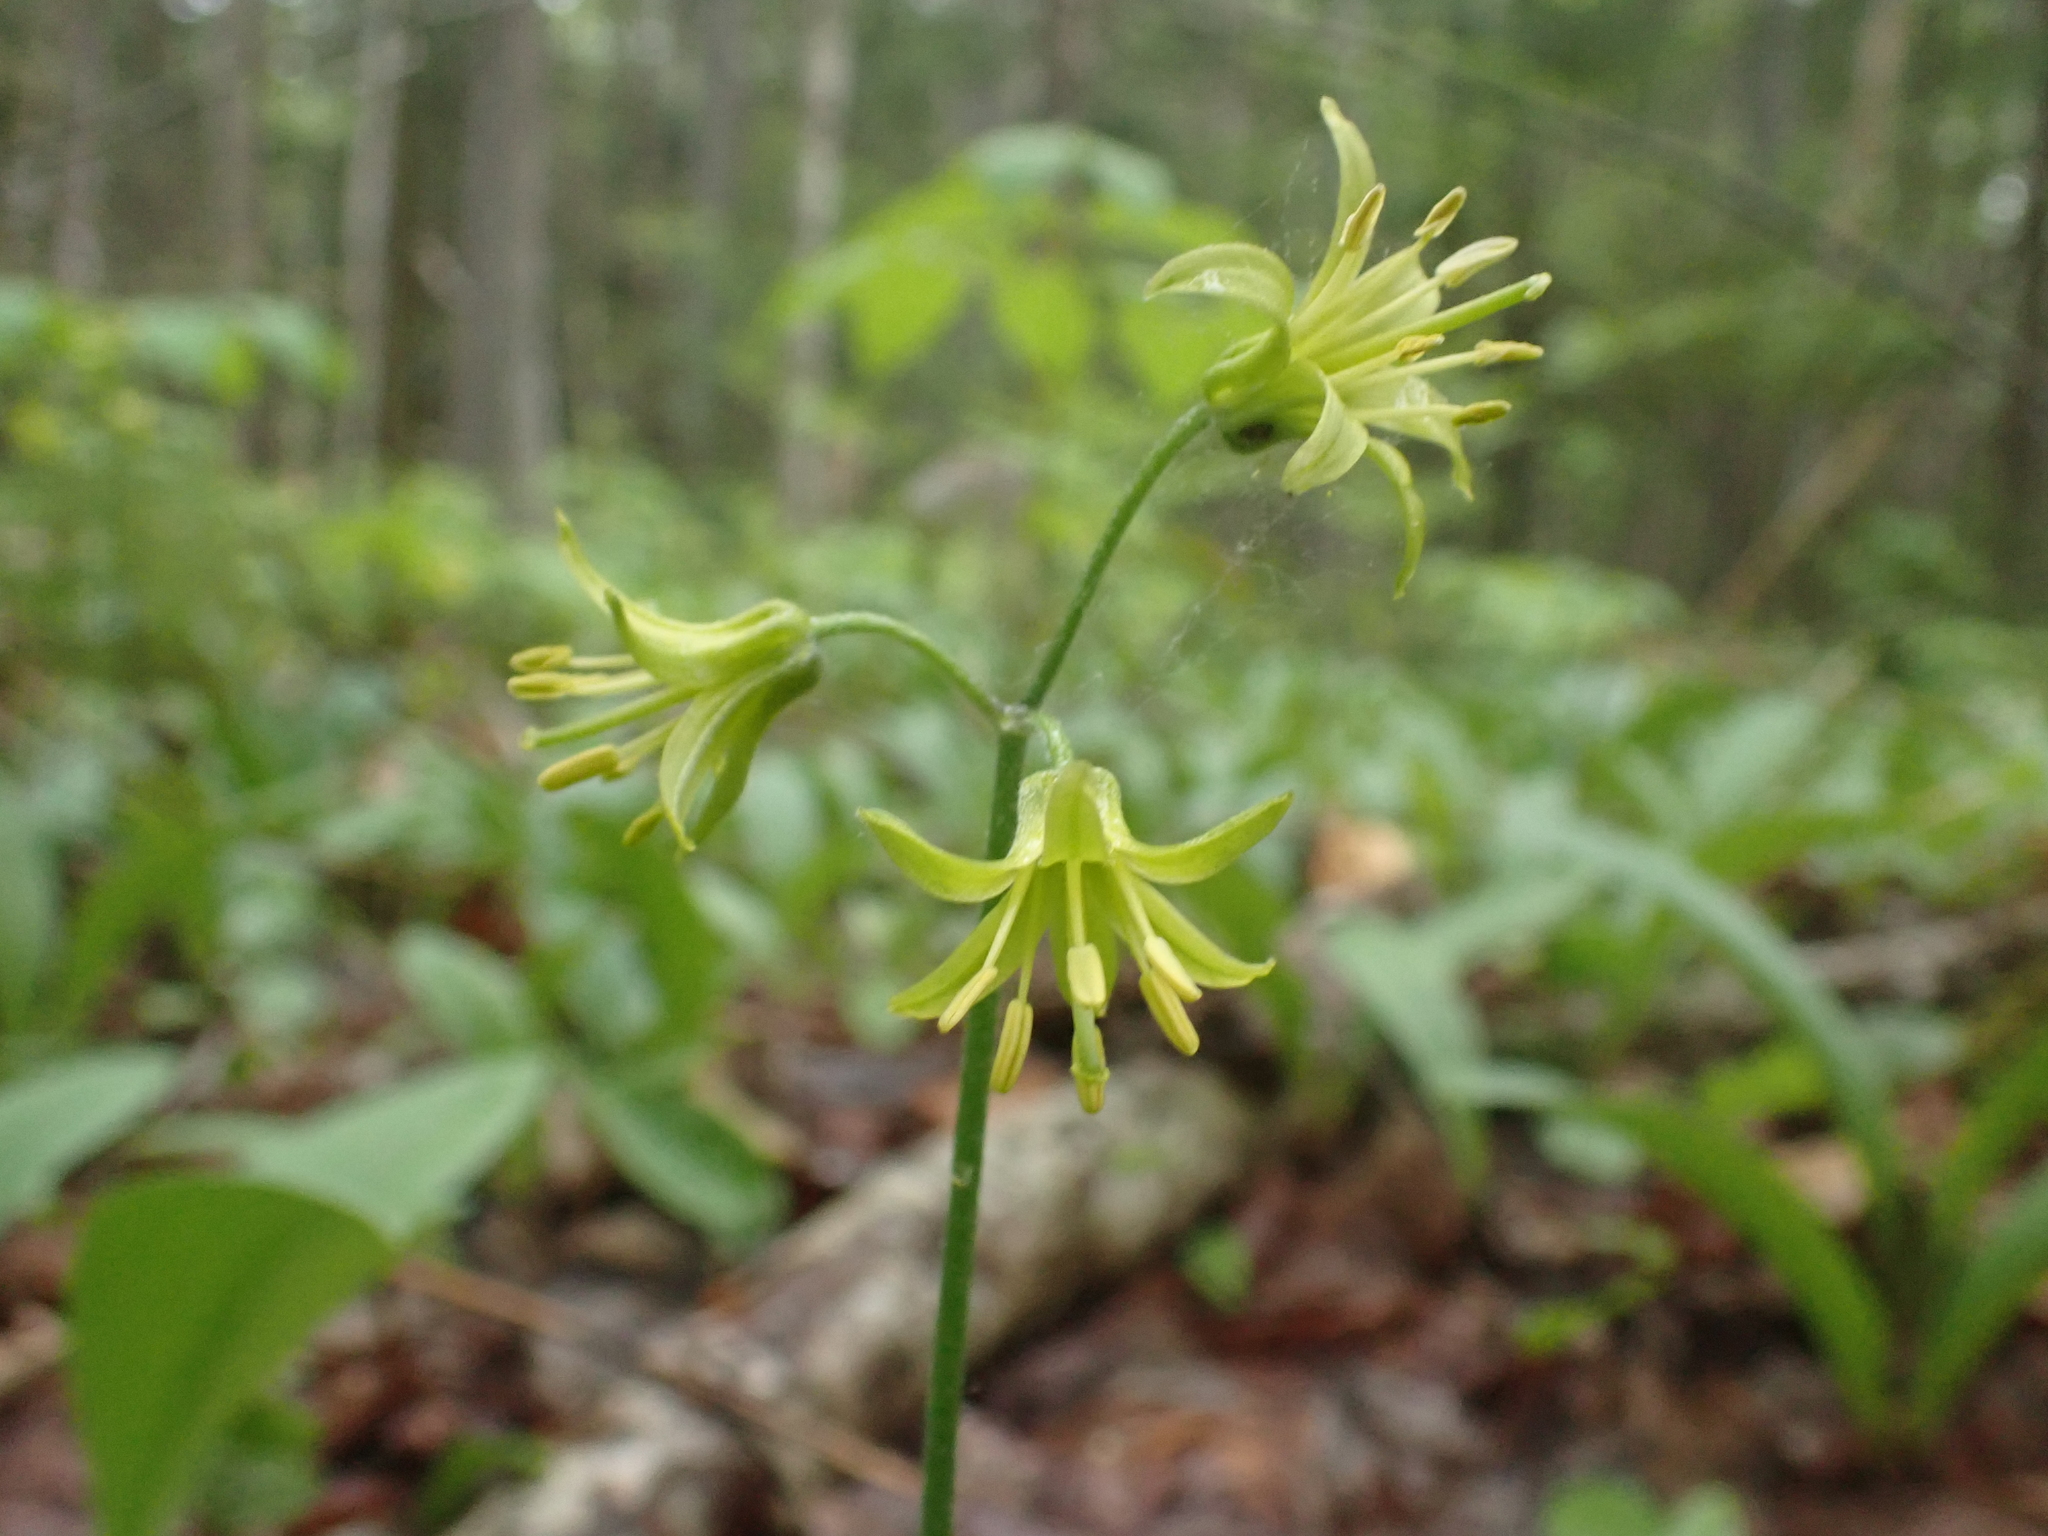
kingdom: Plantae
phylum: Tracheophyta
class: Liliopsida
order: Liliales
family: Liliaceae
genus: Clintonia
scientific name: Clintonia borealis
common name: Yellow clintonia
